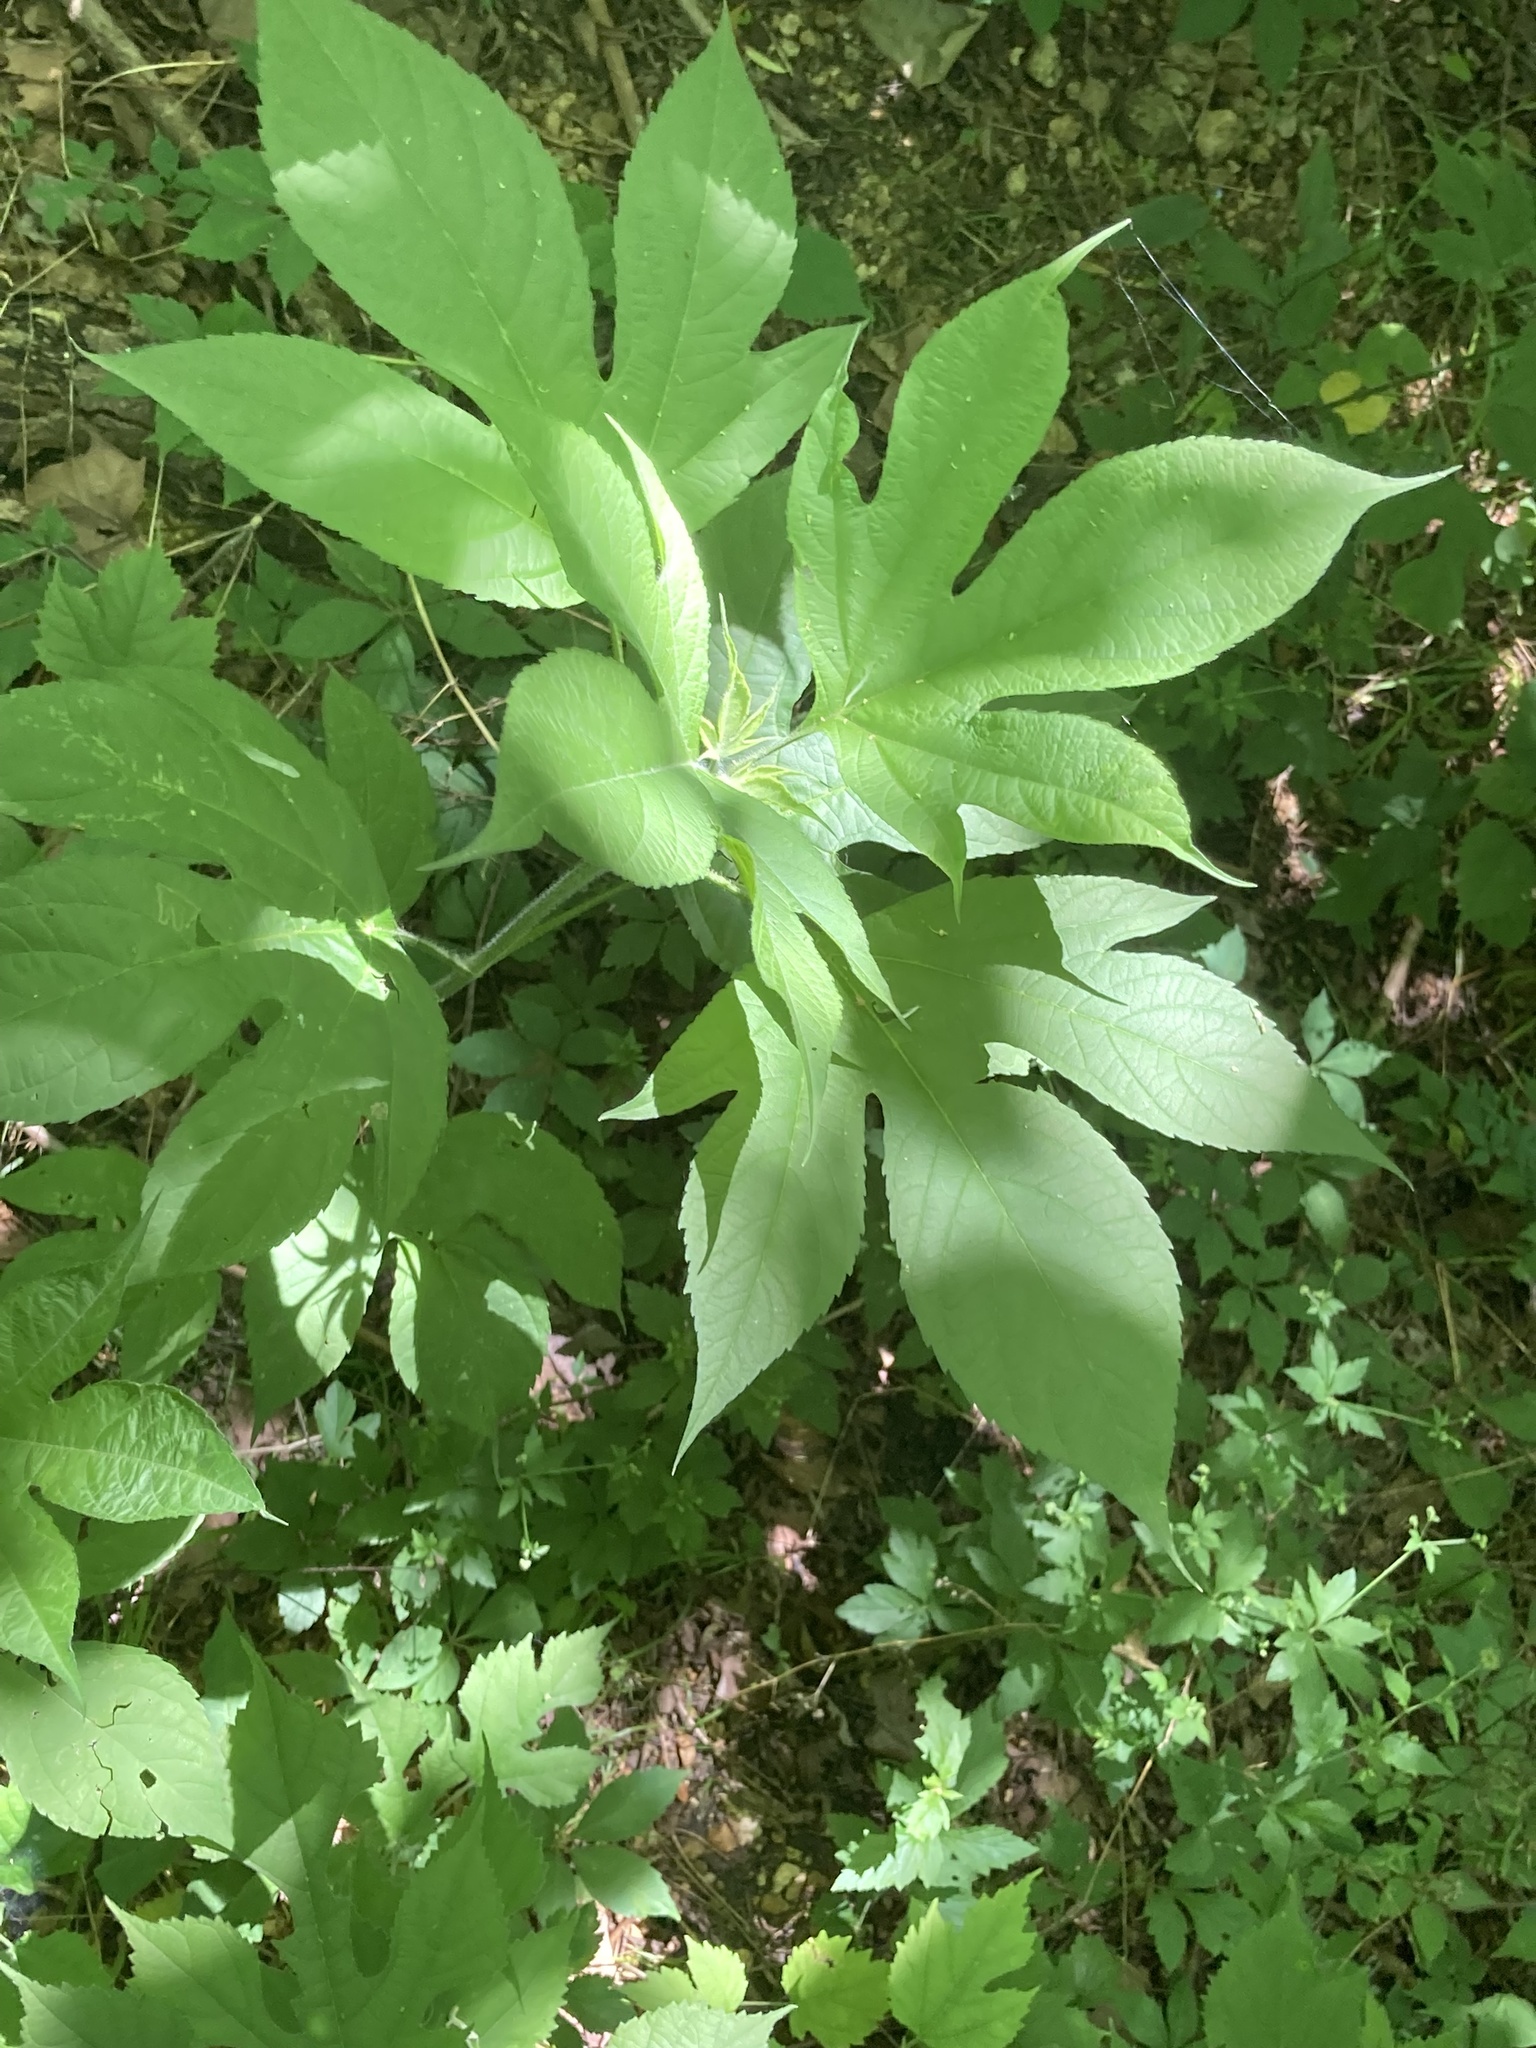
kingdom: Plantae
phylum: Tracheophyta
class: Magnoliopsida
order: Asterales
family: Asteraceae
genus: Ambrosia
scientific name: Ambrosia trifida
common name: Giant ragweed
